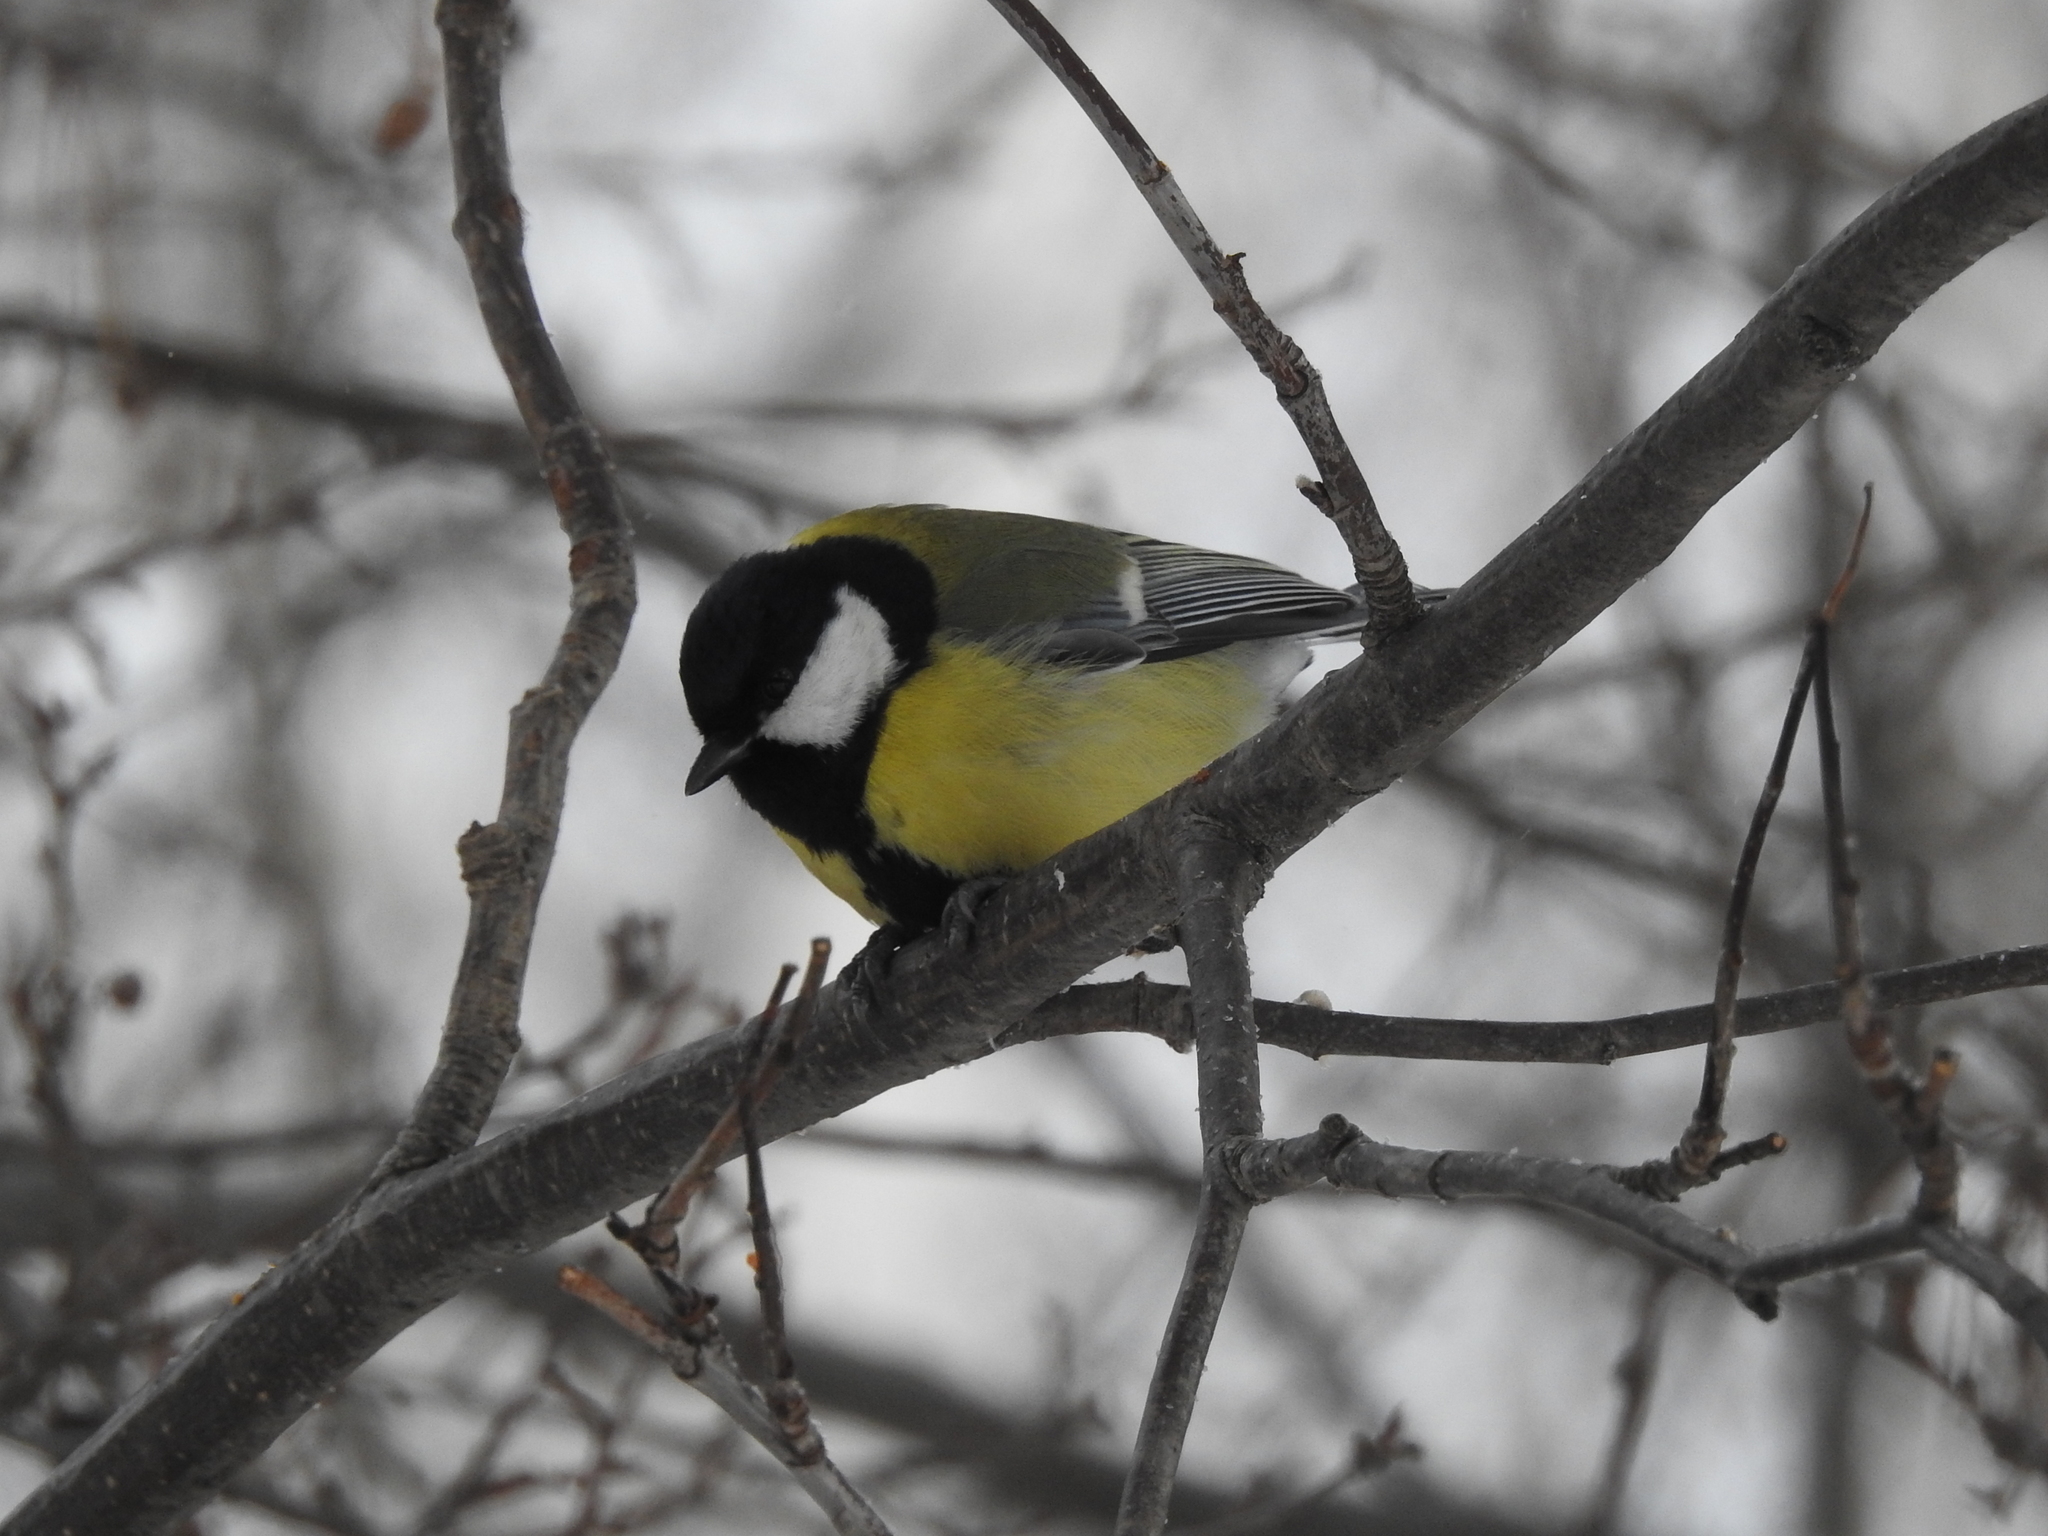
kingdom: Animalia
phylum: Chordata
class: Aves
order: Passeriformes
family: Paridae
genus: Parus
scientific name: Parus major
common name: Great tit
